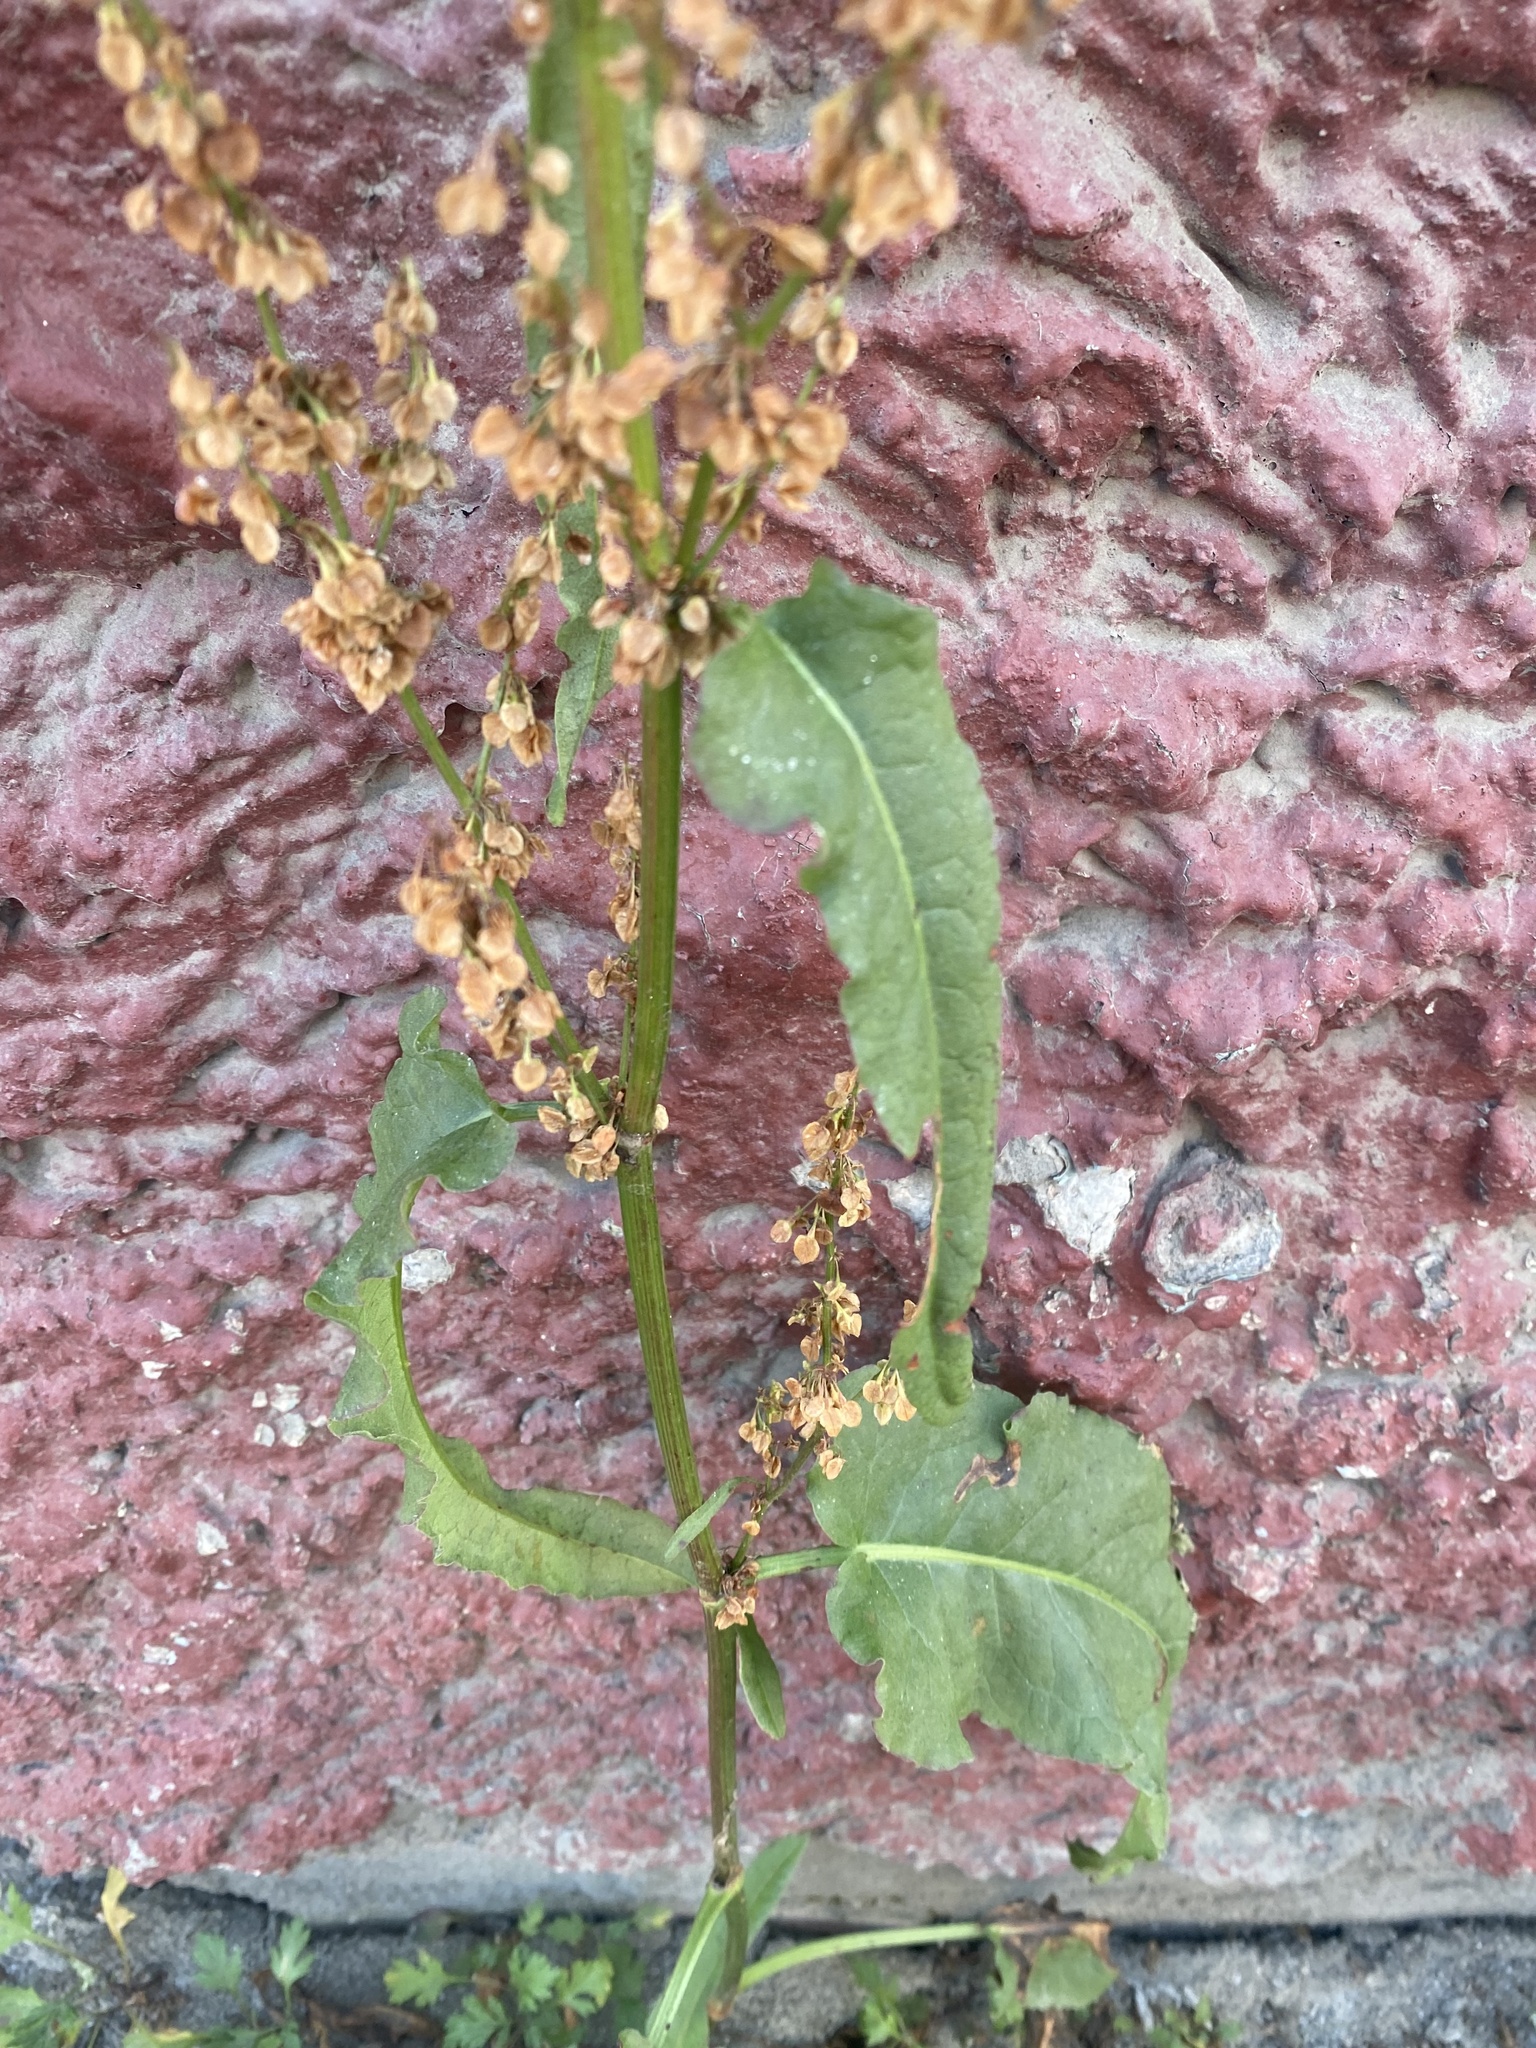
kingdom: Plantae
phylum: Tracheophyta
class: Magnoliopsida
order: Caryophyllales
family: Polygonaceae
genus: Rumex
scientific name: Rumex pseudonatronatus
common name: Field dock
